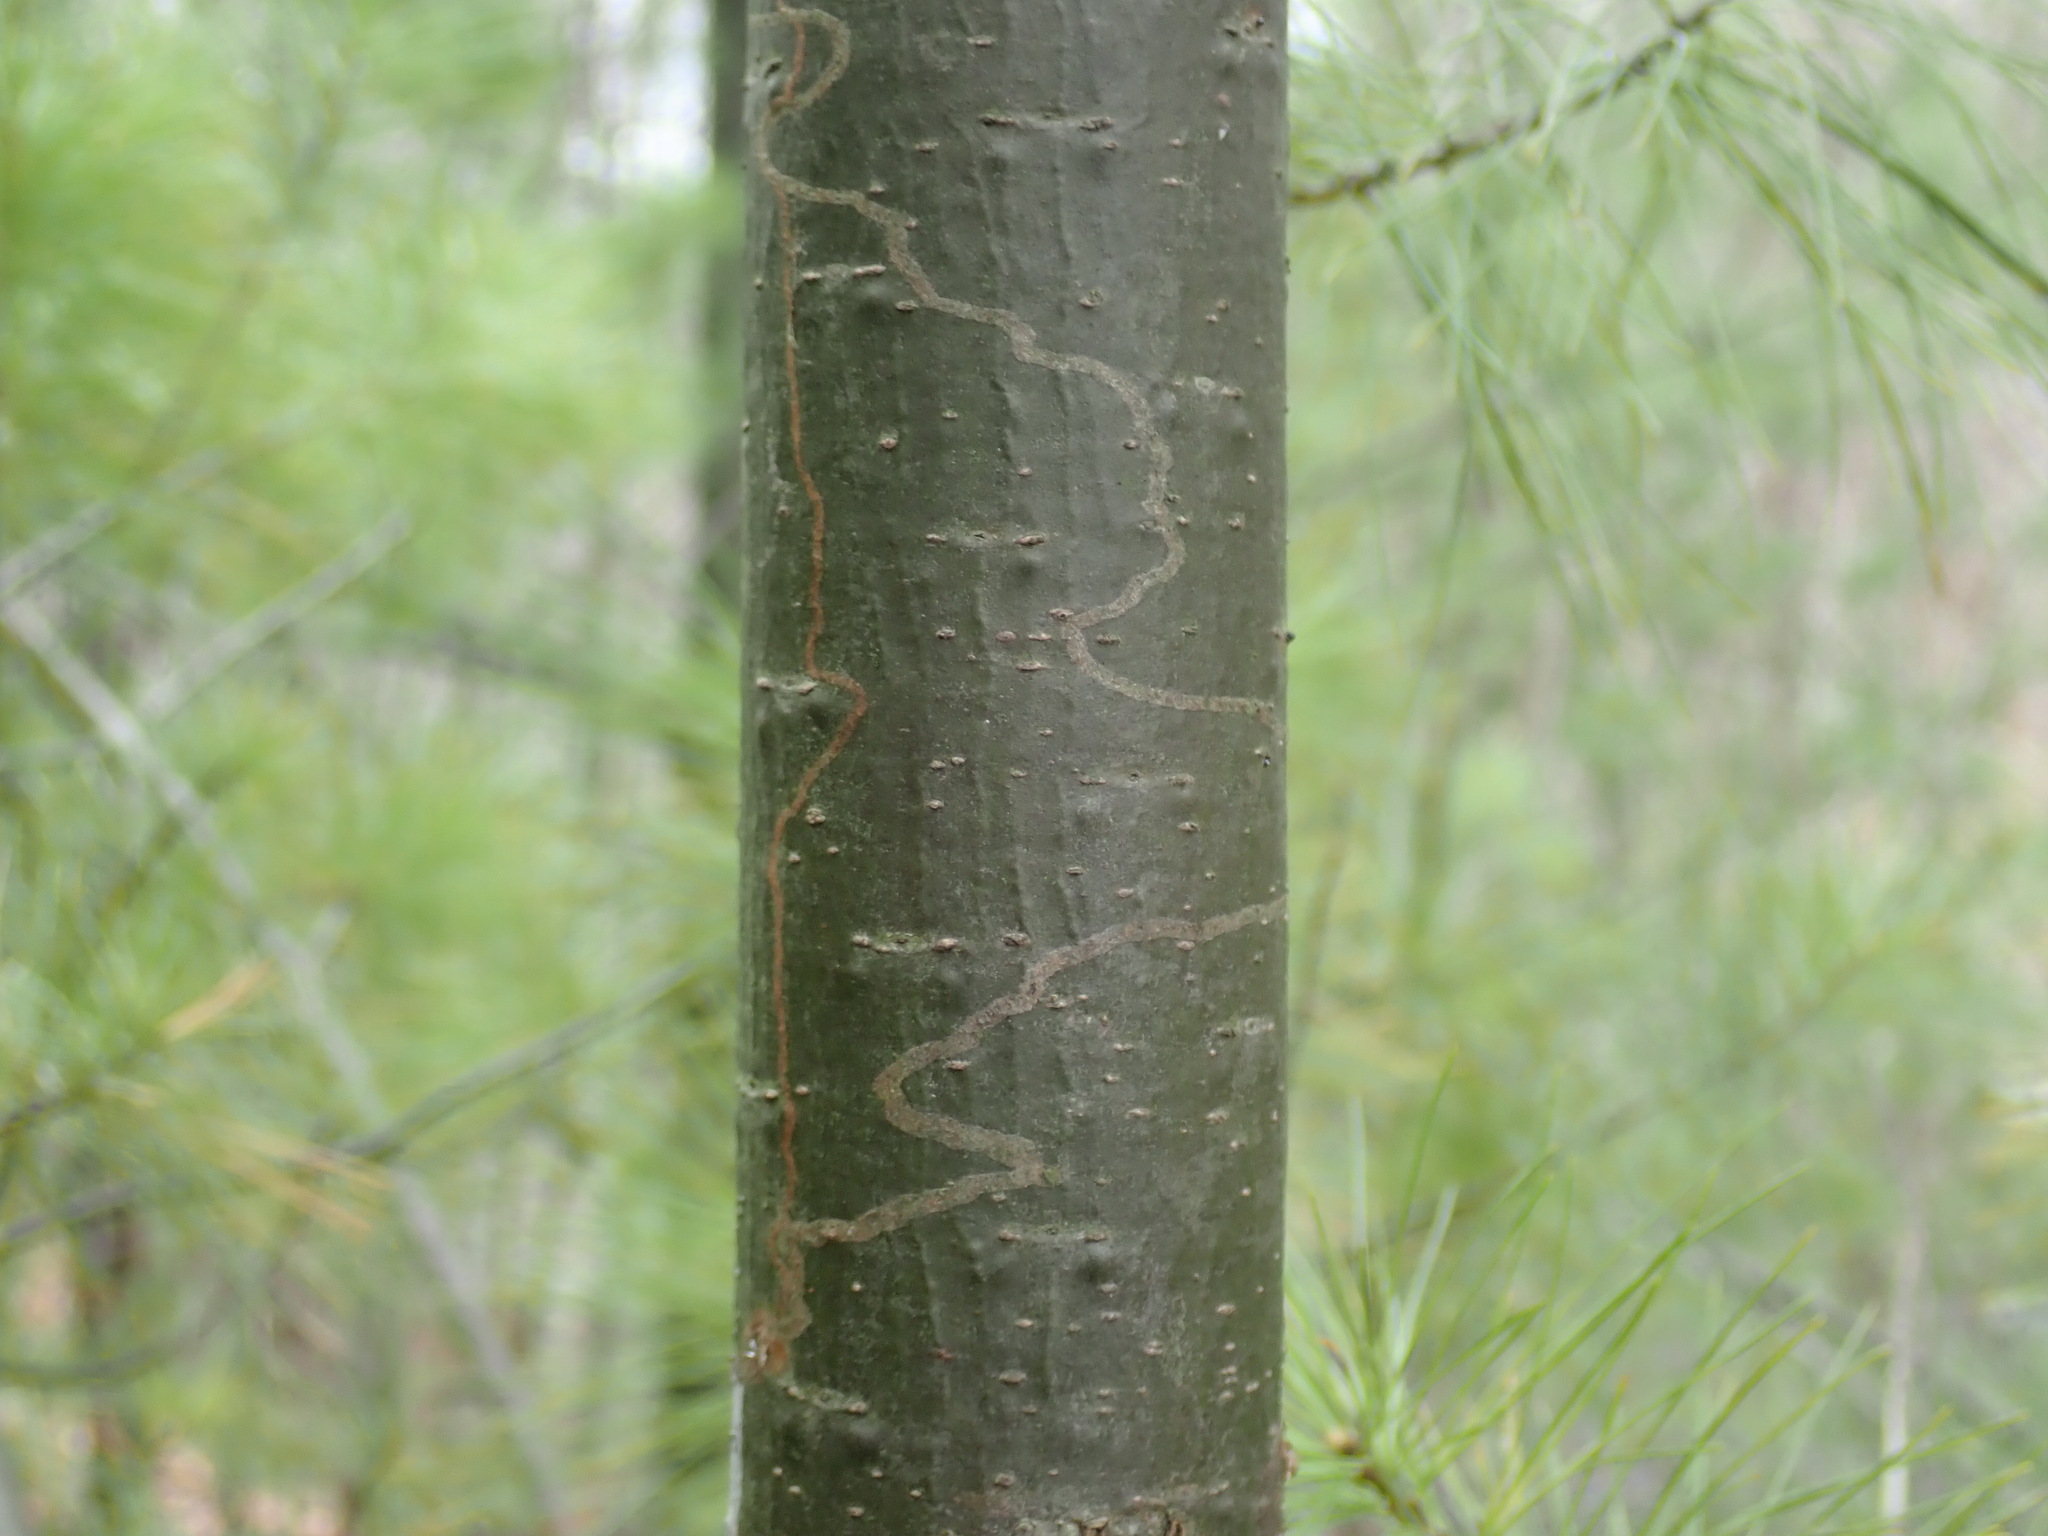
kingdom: Animalia
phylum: Arthropoda
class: Insecta
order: Lepidoptera
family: Gracillariidae
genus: Marmara
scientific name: Marmara fasciella
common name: White pine barkminer moth
